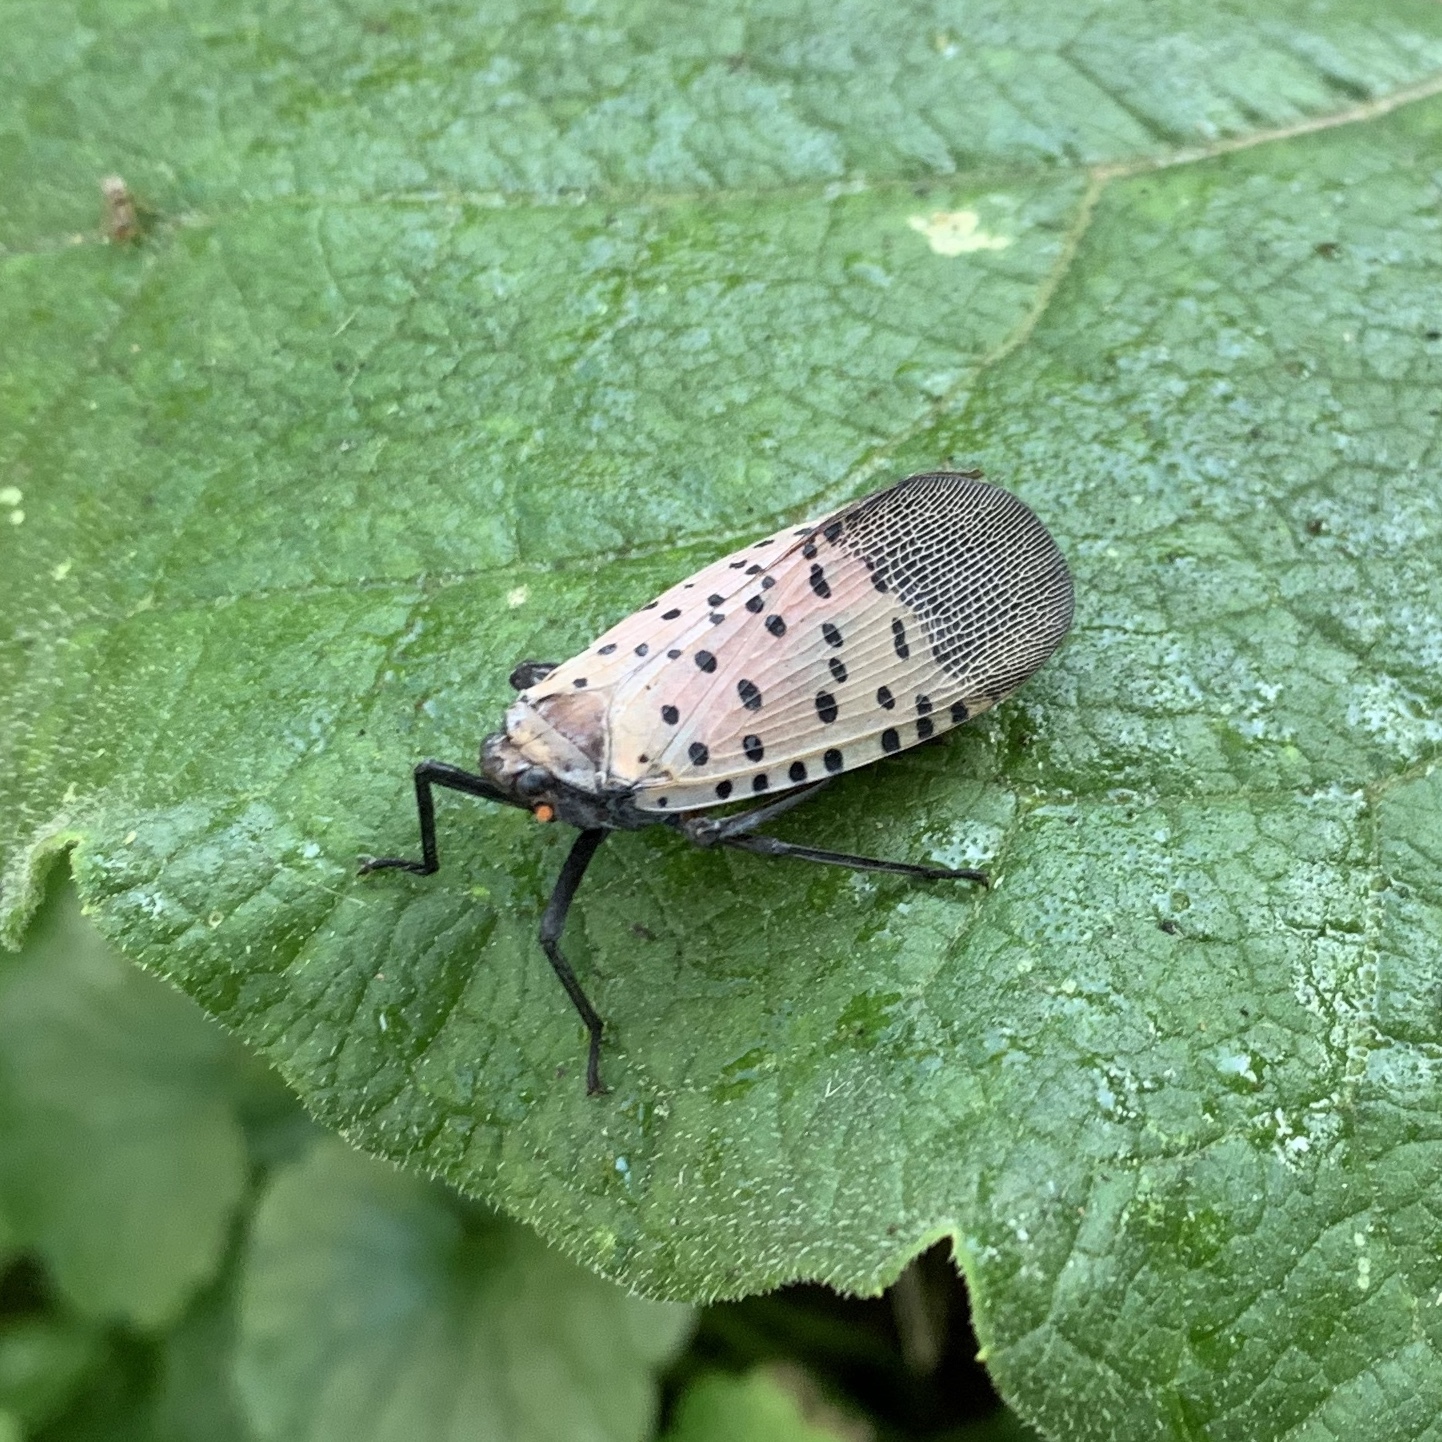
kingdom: Animalia
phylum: Arthropoda
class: Insecta
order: Hemiptera
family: Fulgoridae
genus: Lycorma
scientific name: Lycorma delicatula
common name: Spotted lanternfly
